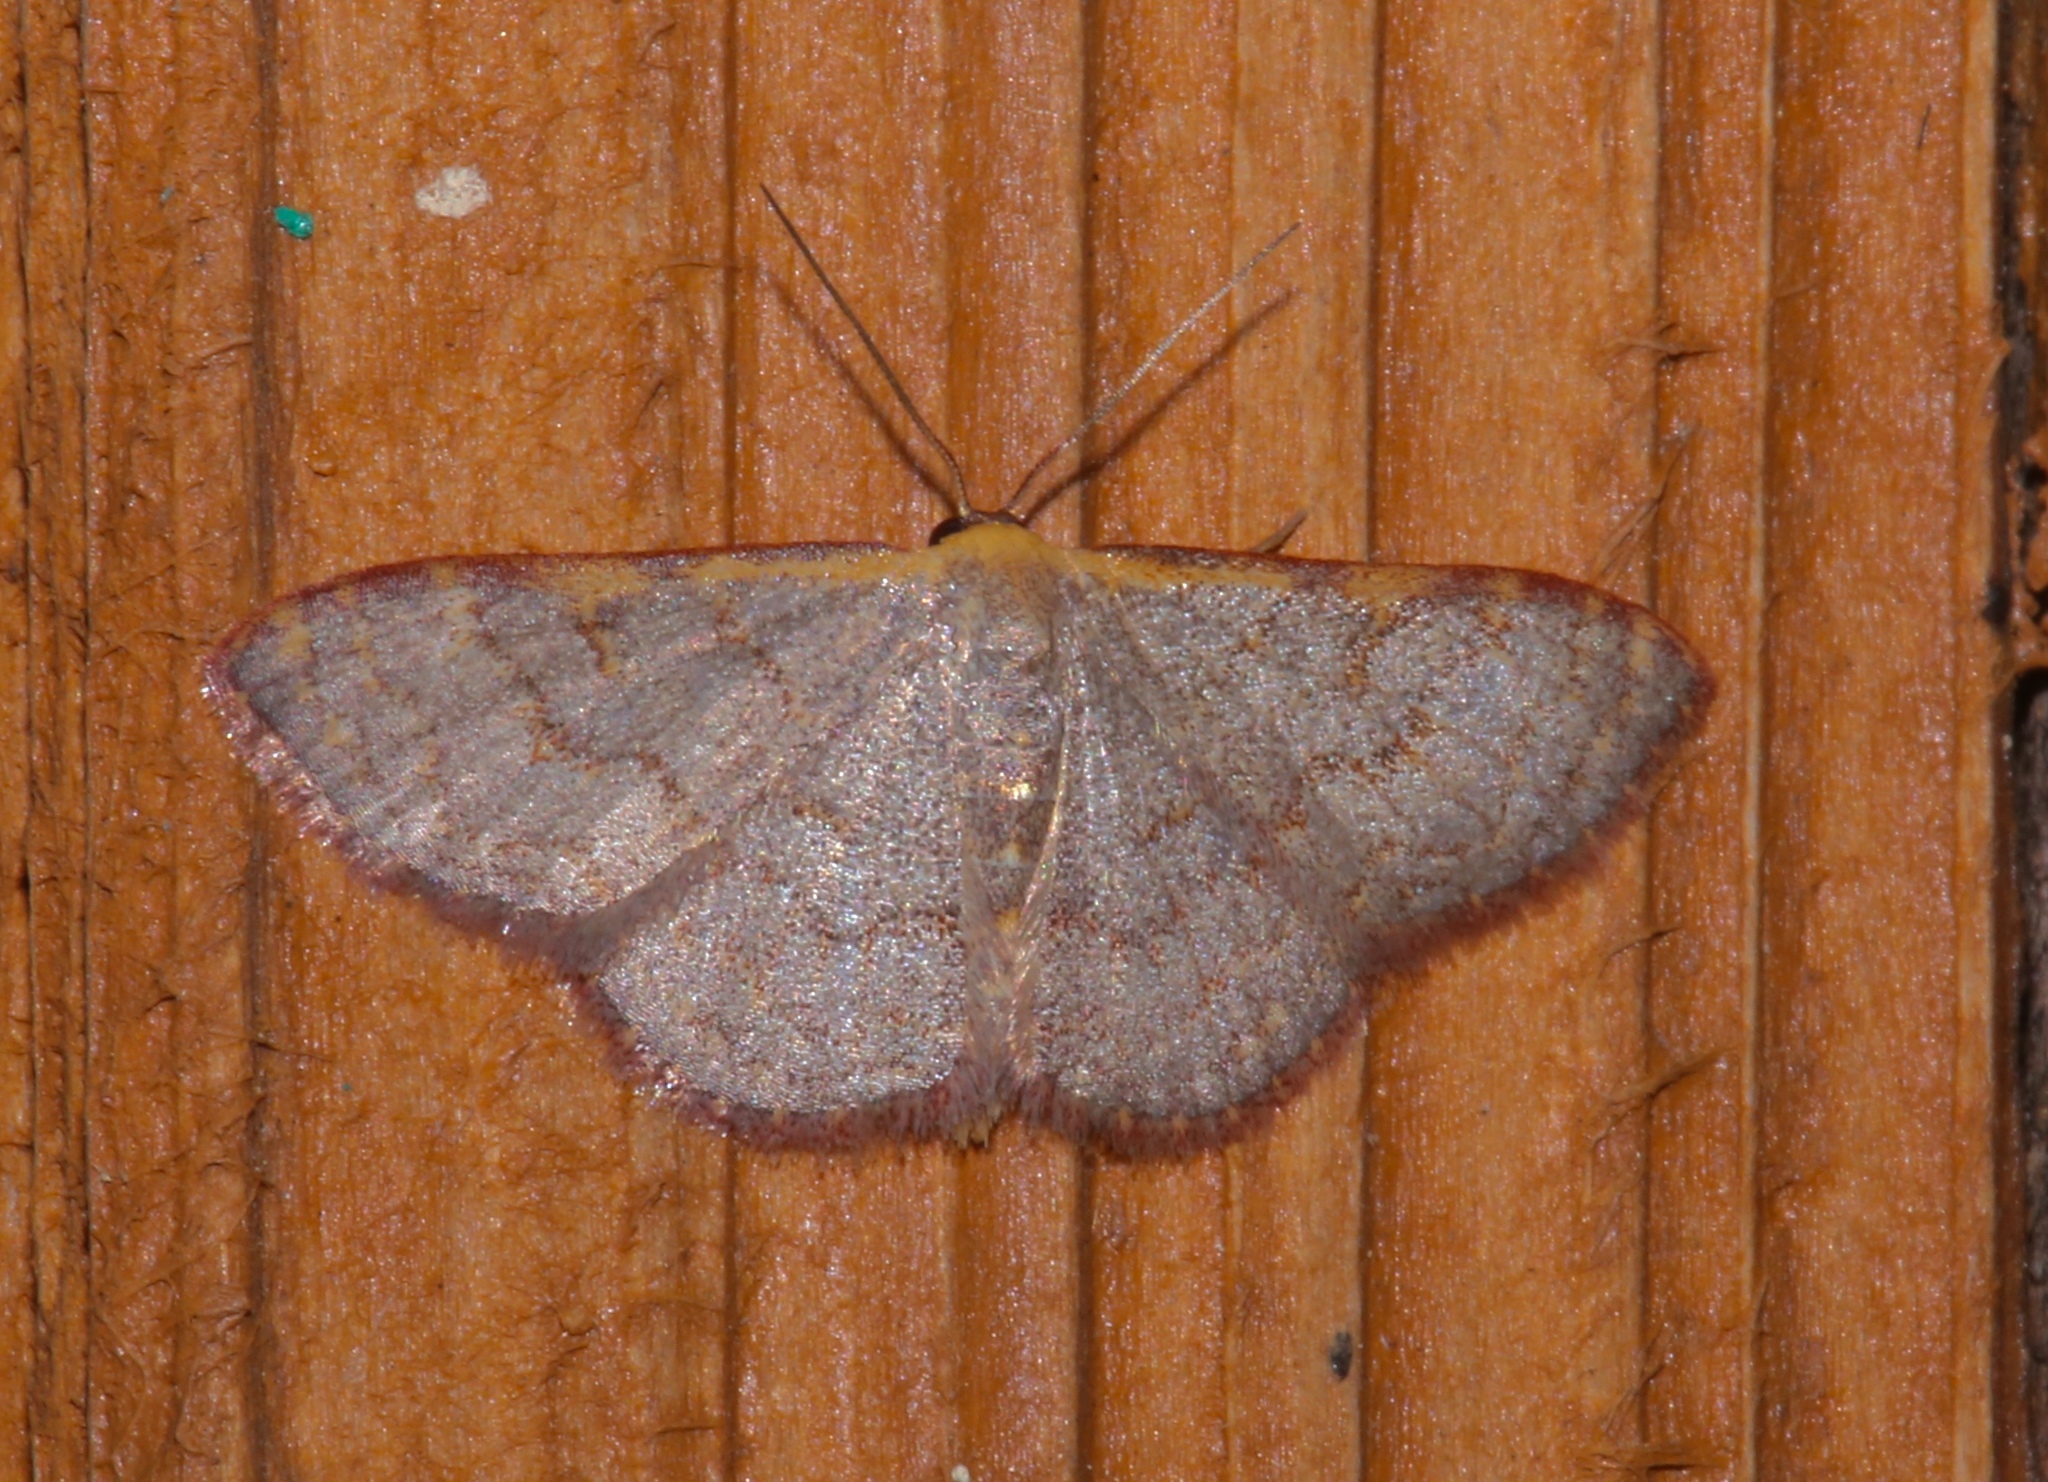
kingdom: Animalia
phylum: Arthropoda
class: Insecta
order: Lepidoptera
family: Geometridae
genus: Leptostales
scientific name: Leptostales pannaria
